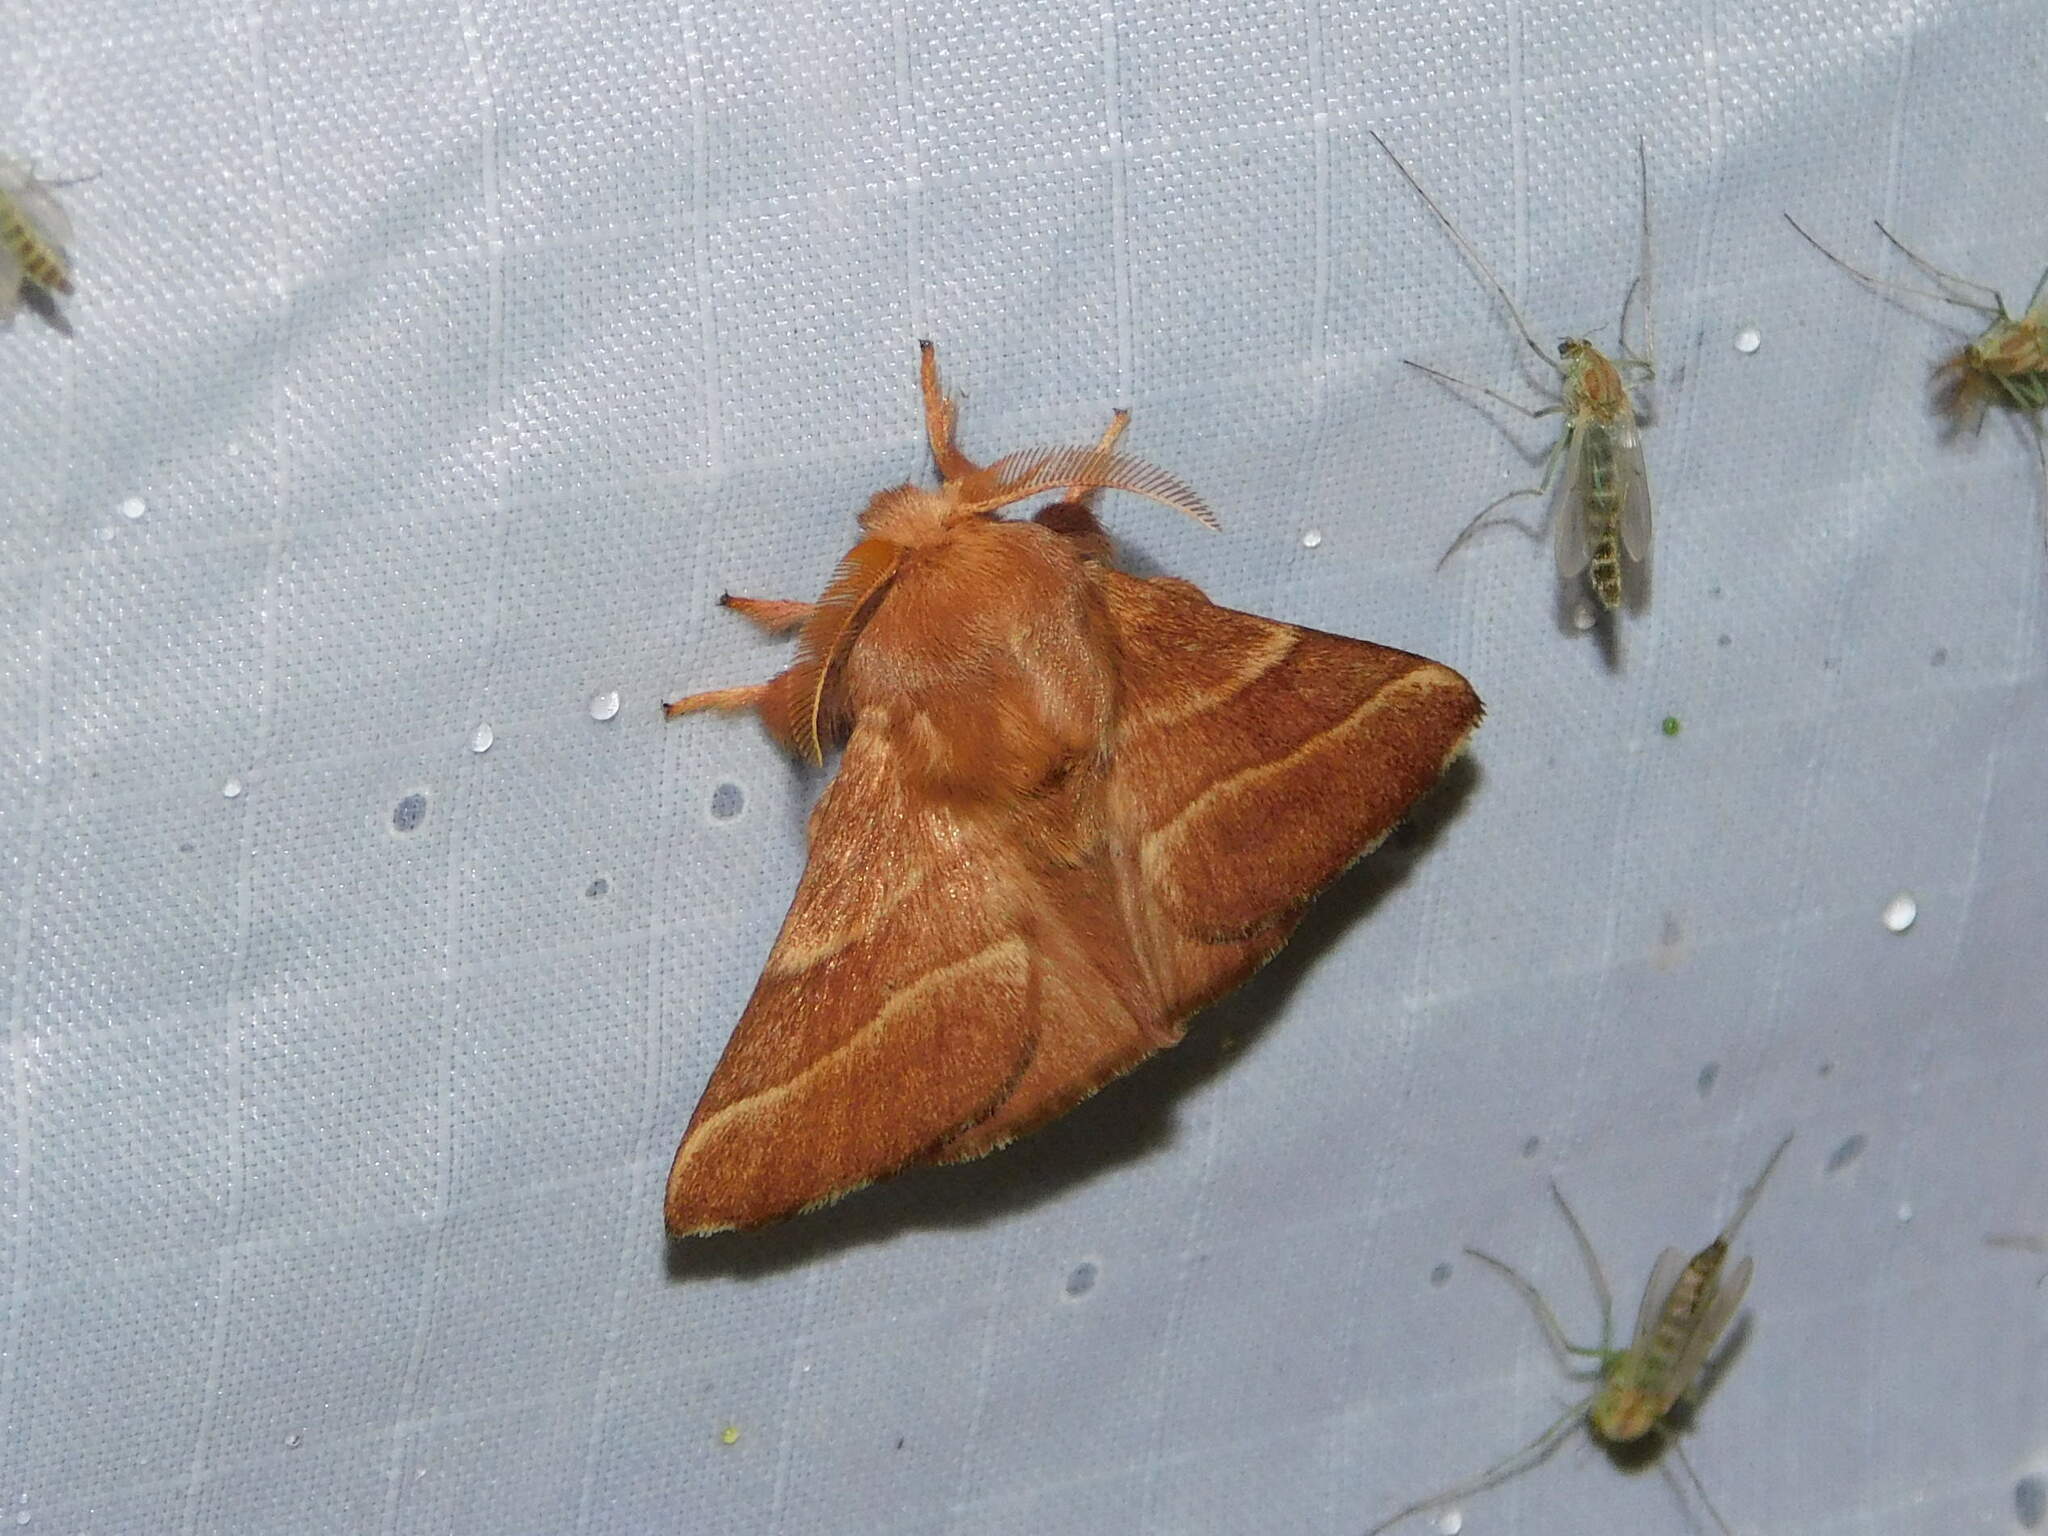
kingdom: Animalia
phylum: Arthropoda
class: Insecta
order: Lepidoptera
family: Lasiocampidae
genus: Malacosoma
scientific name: Malacosoma neustria
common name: The lackey
